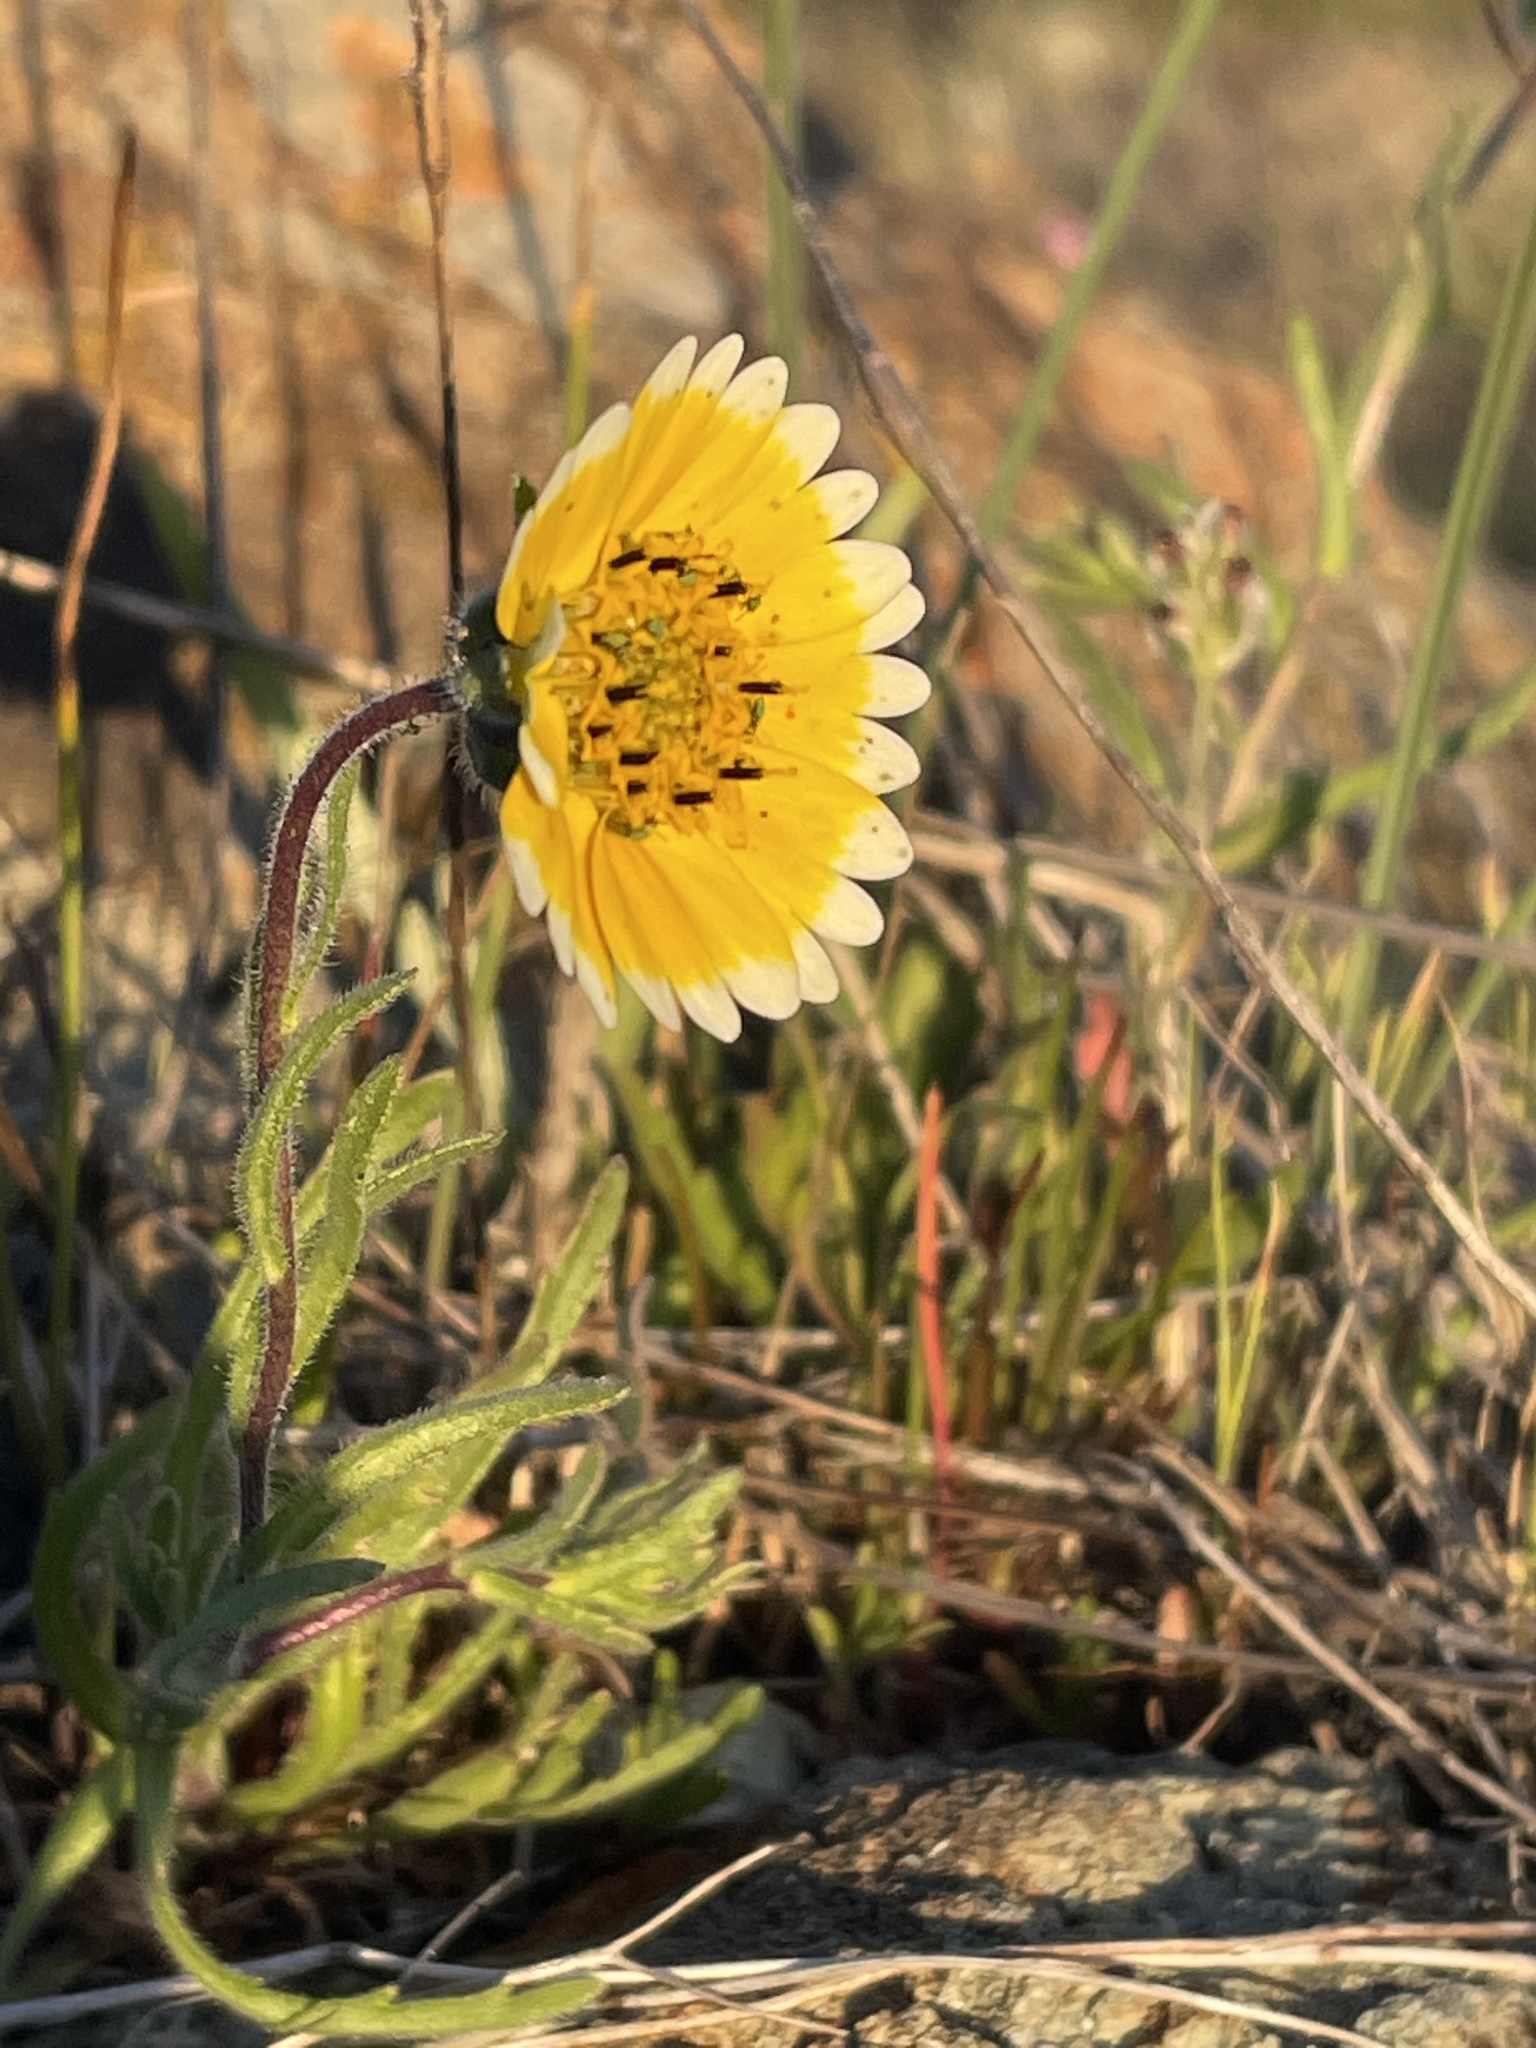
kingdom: Plantae
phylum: Tracheophyta
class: Magnoliopsida
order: Asterales
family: Asteraceae
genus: Layia
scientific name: Layia platyglossa
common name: Tidy-tips
